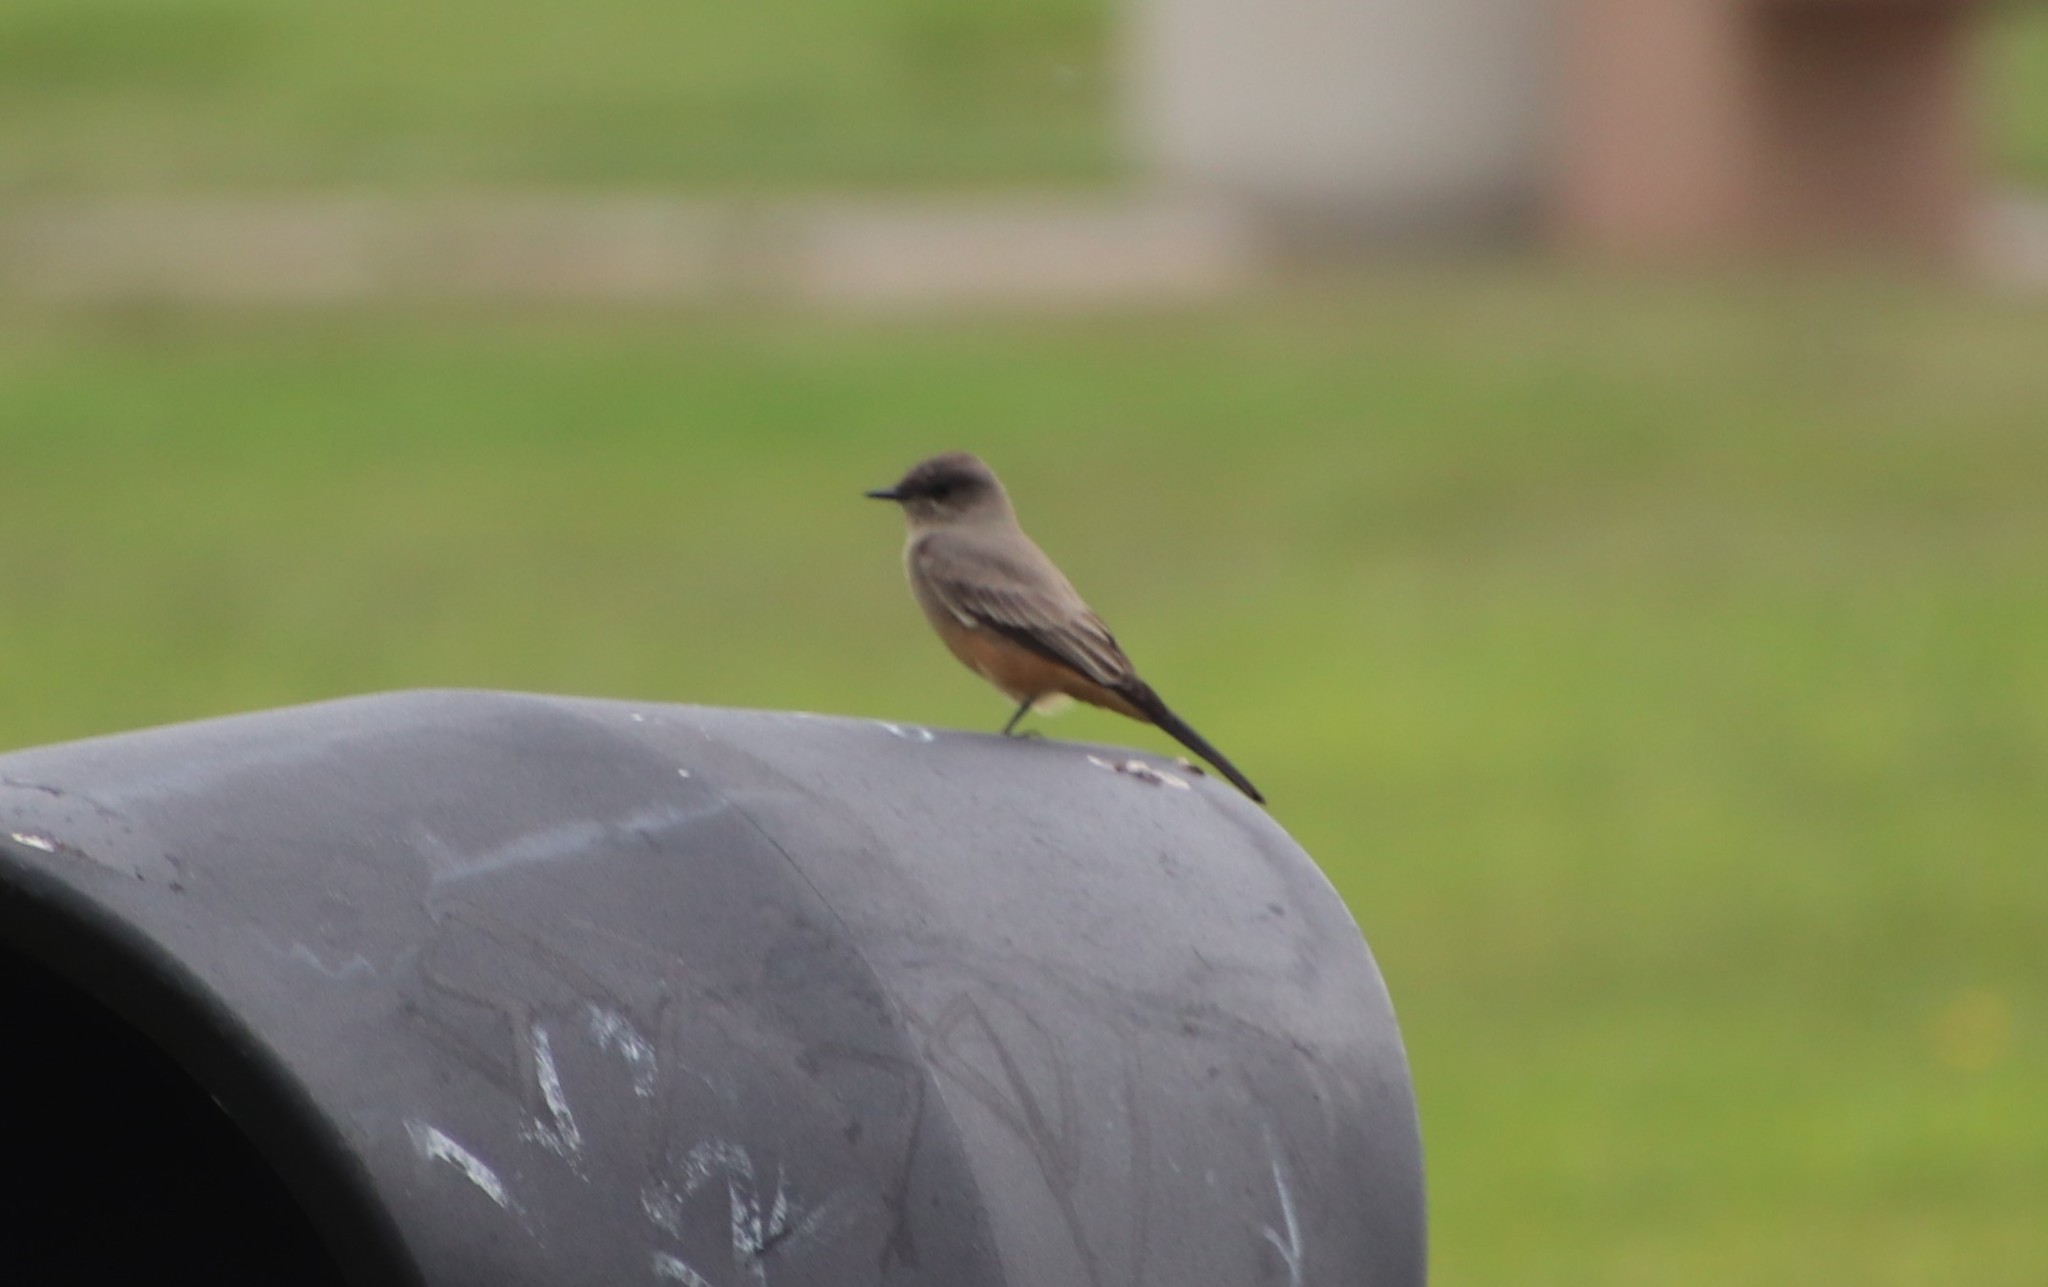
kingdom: Animalia
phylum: Chordata
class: Aves
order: Passeriformes
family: Tyrannidae
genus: Sayornis
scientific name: Sayornis saya
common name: Say's phoebe
